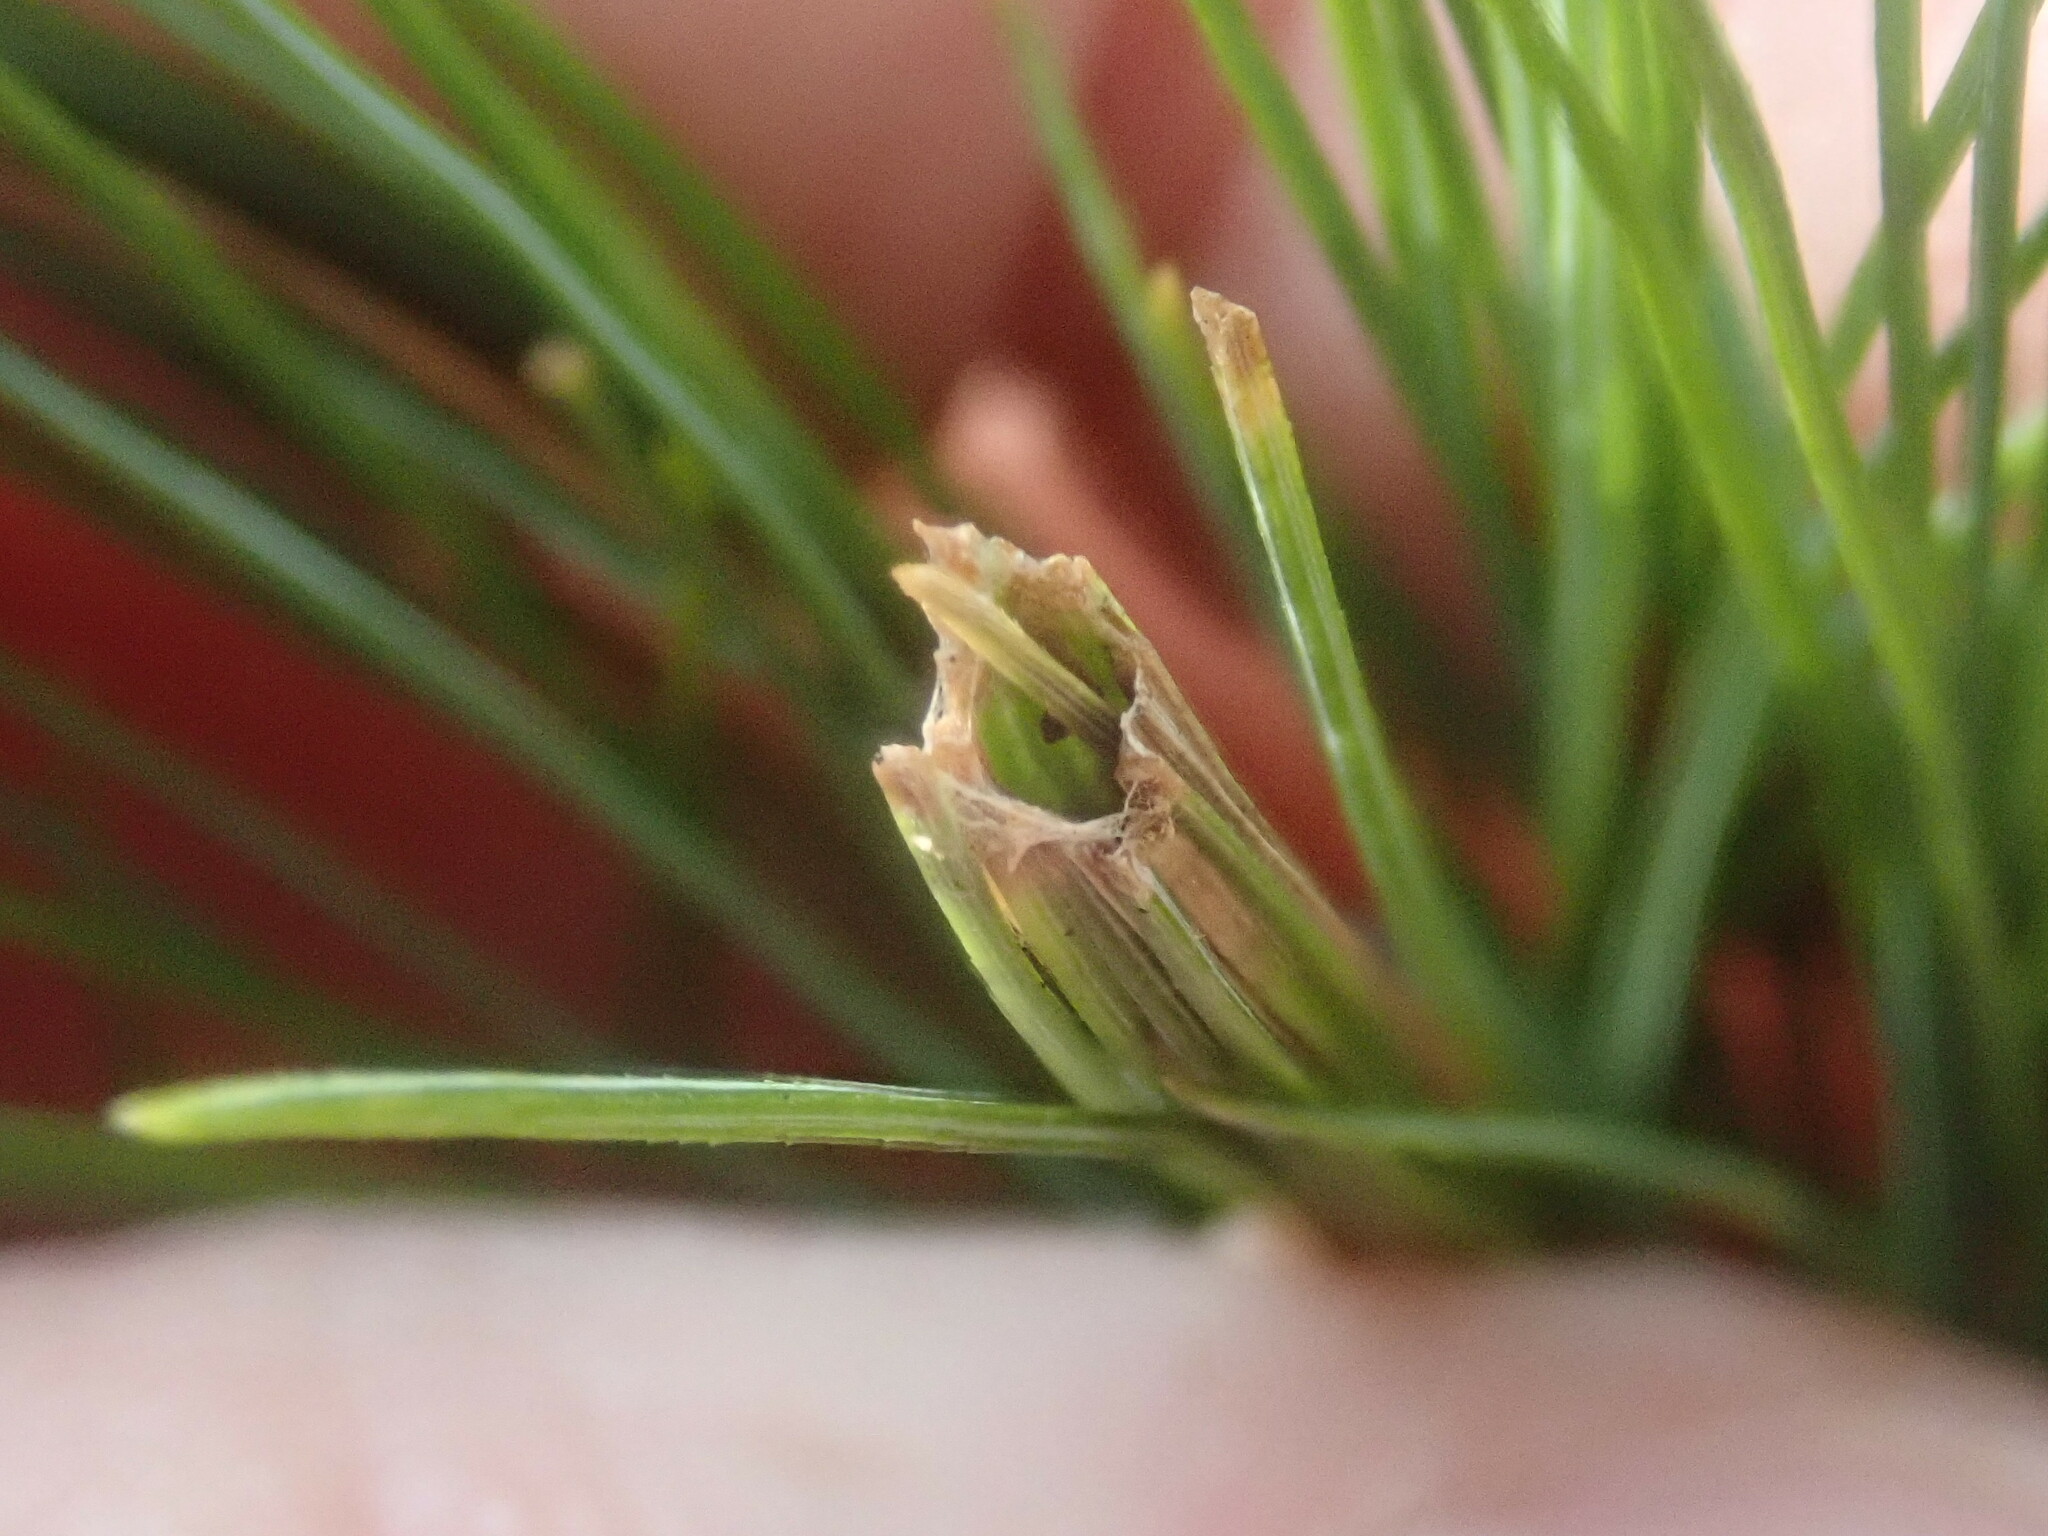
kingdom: Animalia
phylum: Arthropoda
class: Insecta
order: Lepidoptera
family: Tortricidae
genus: Argyrotaenia
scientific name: Argyrotaenia pinatubana
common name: Pine tube moth
